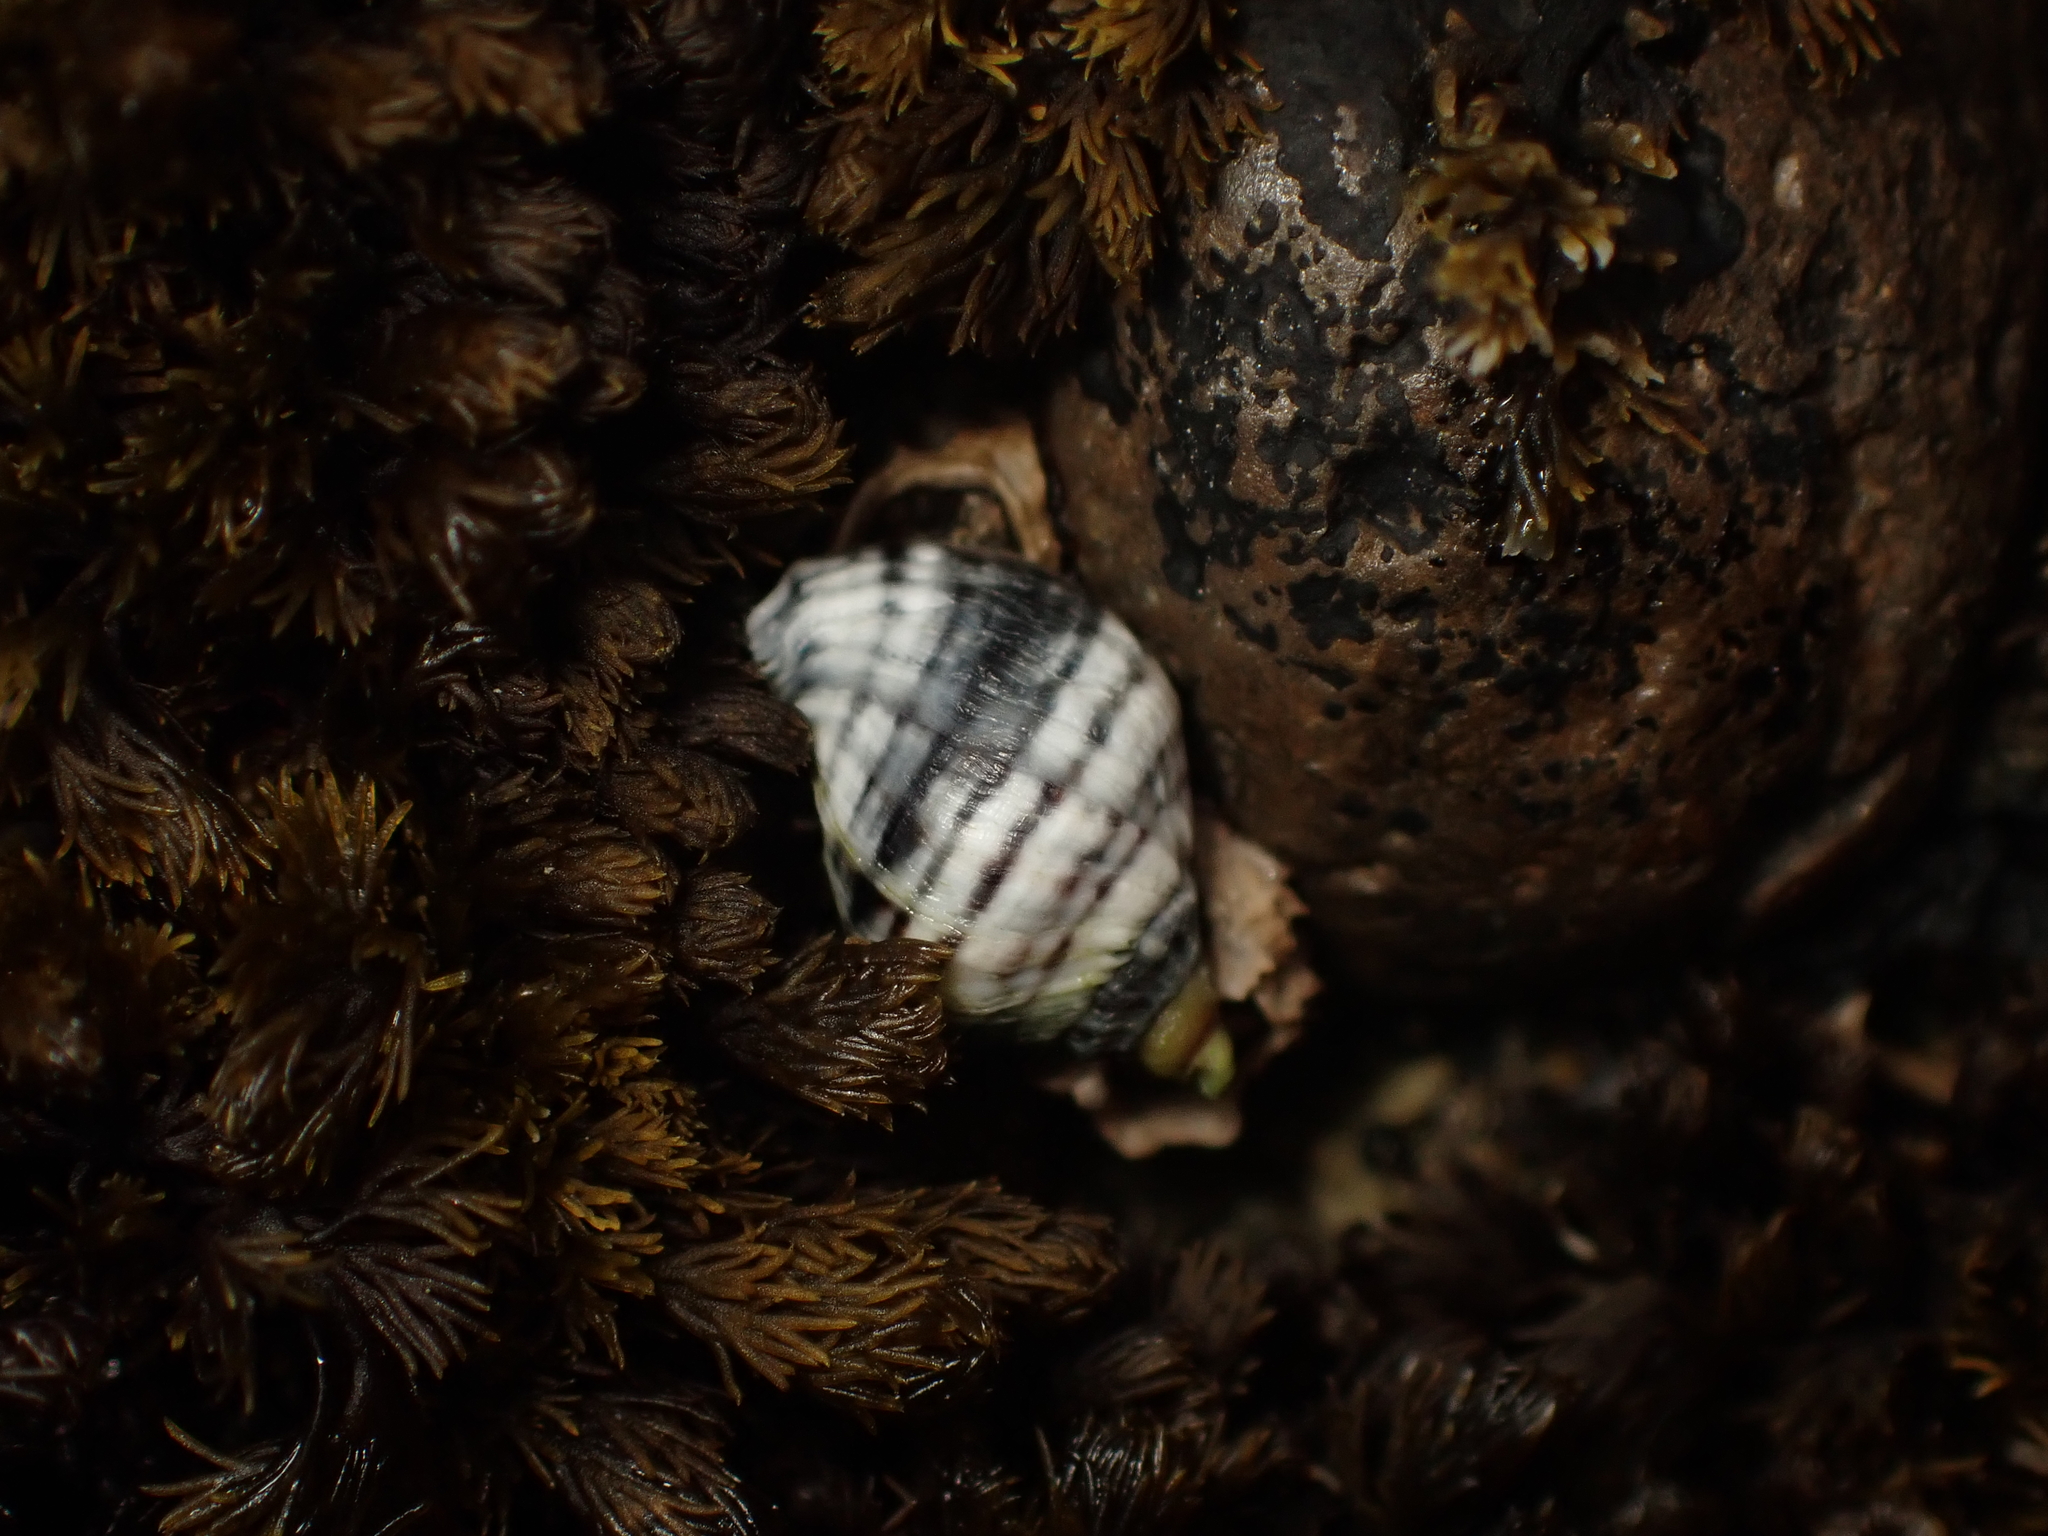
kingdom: Animalia
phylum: Mollusca
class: Gastropoda
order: Neogastropoda
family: Muricidae
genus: Haustrum
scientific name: Haustrum albomarginatum
